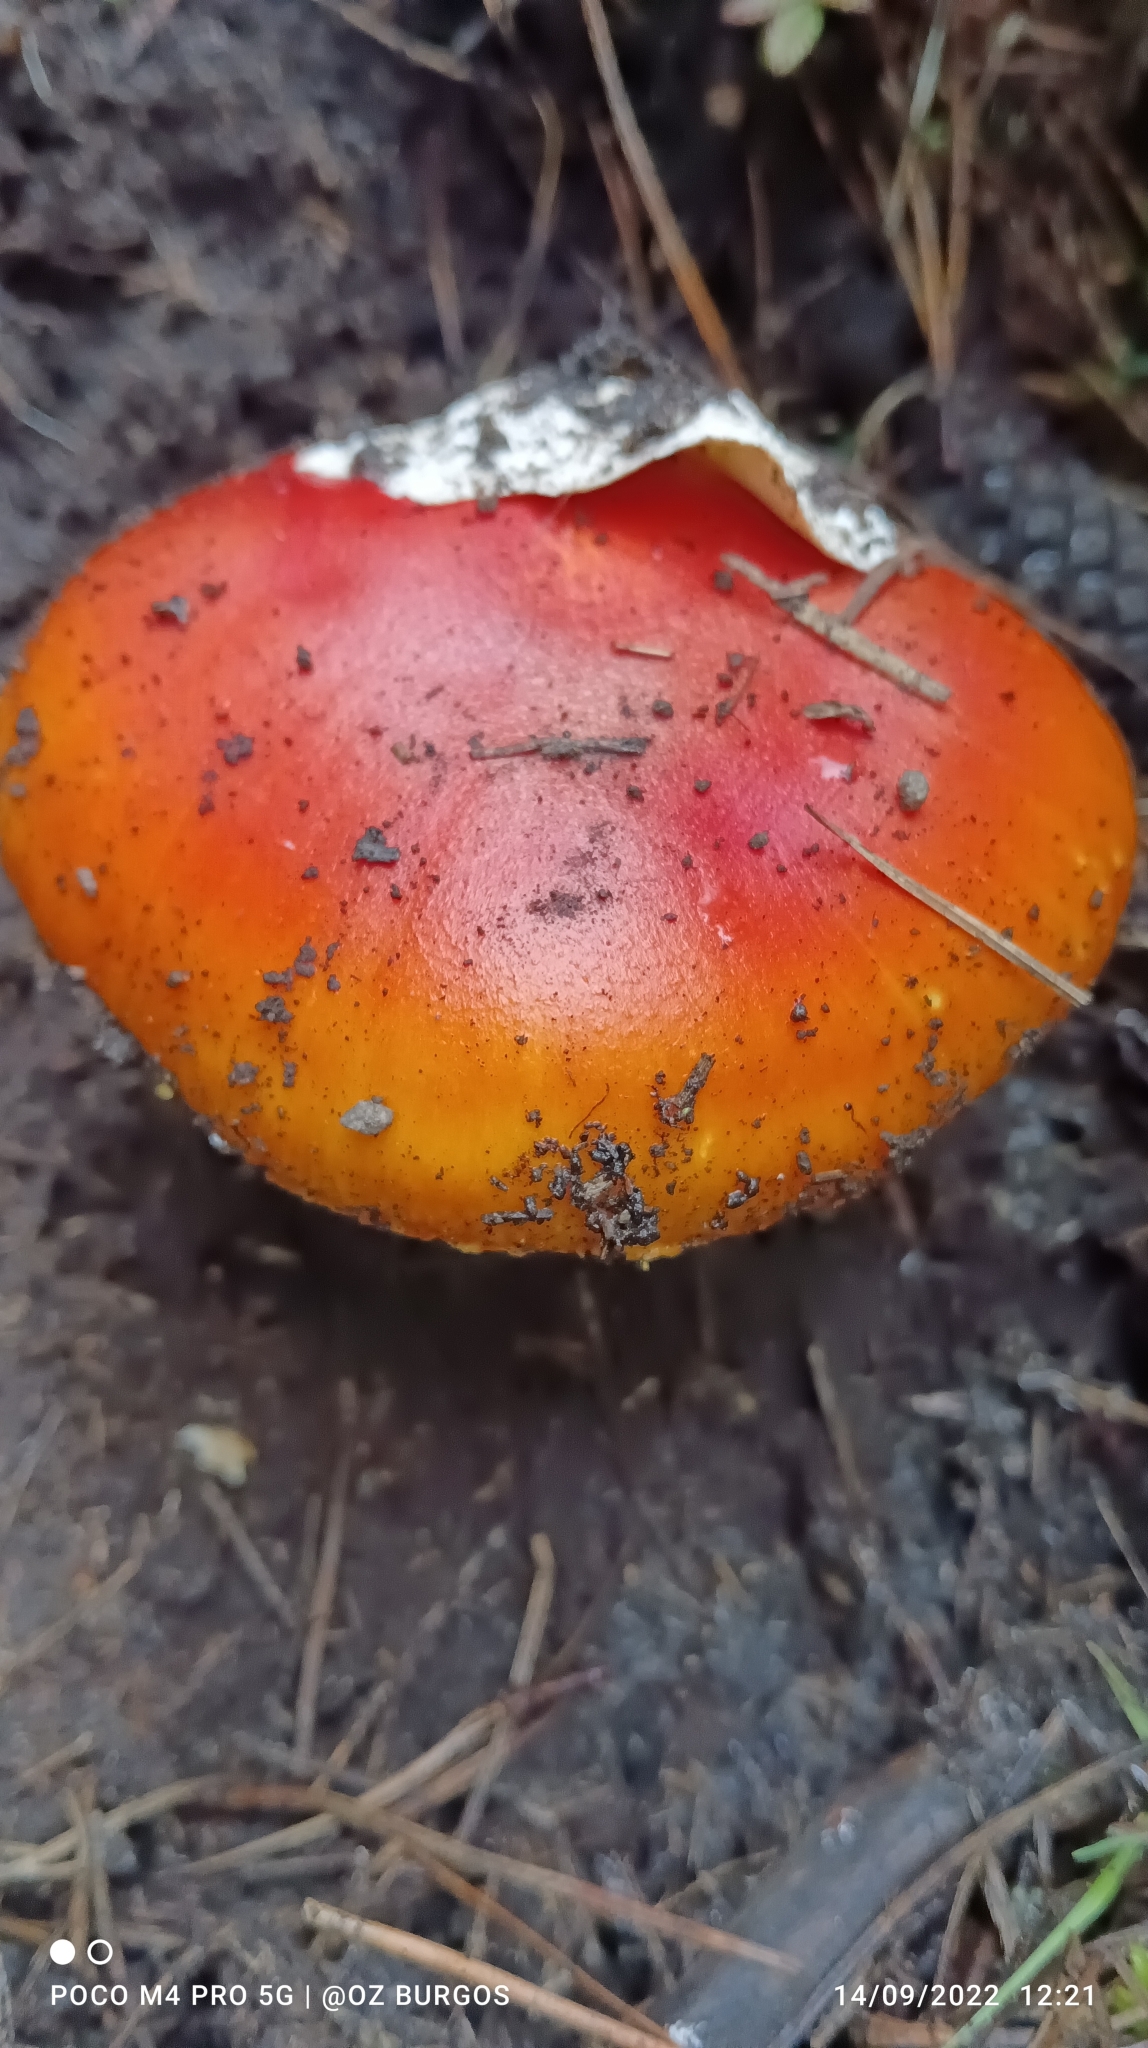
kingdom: Fungi
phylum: Basidiomycota
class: Agaricomycetes
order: Agaricales
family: Amanitaceae
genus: Amanita
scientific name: Amanita basii
